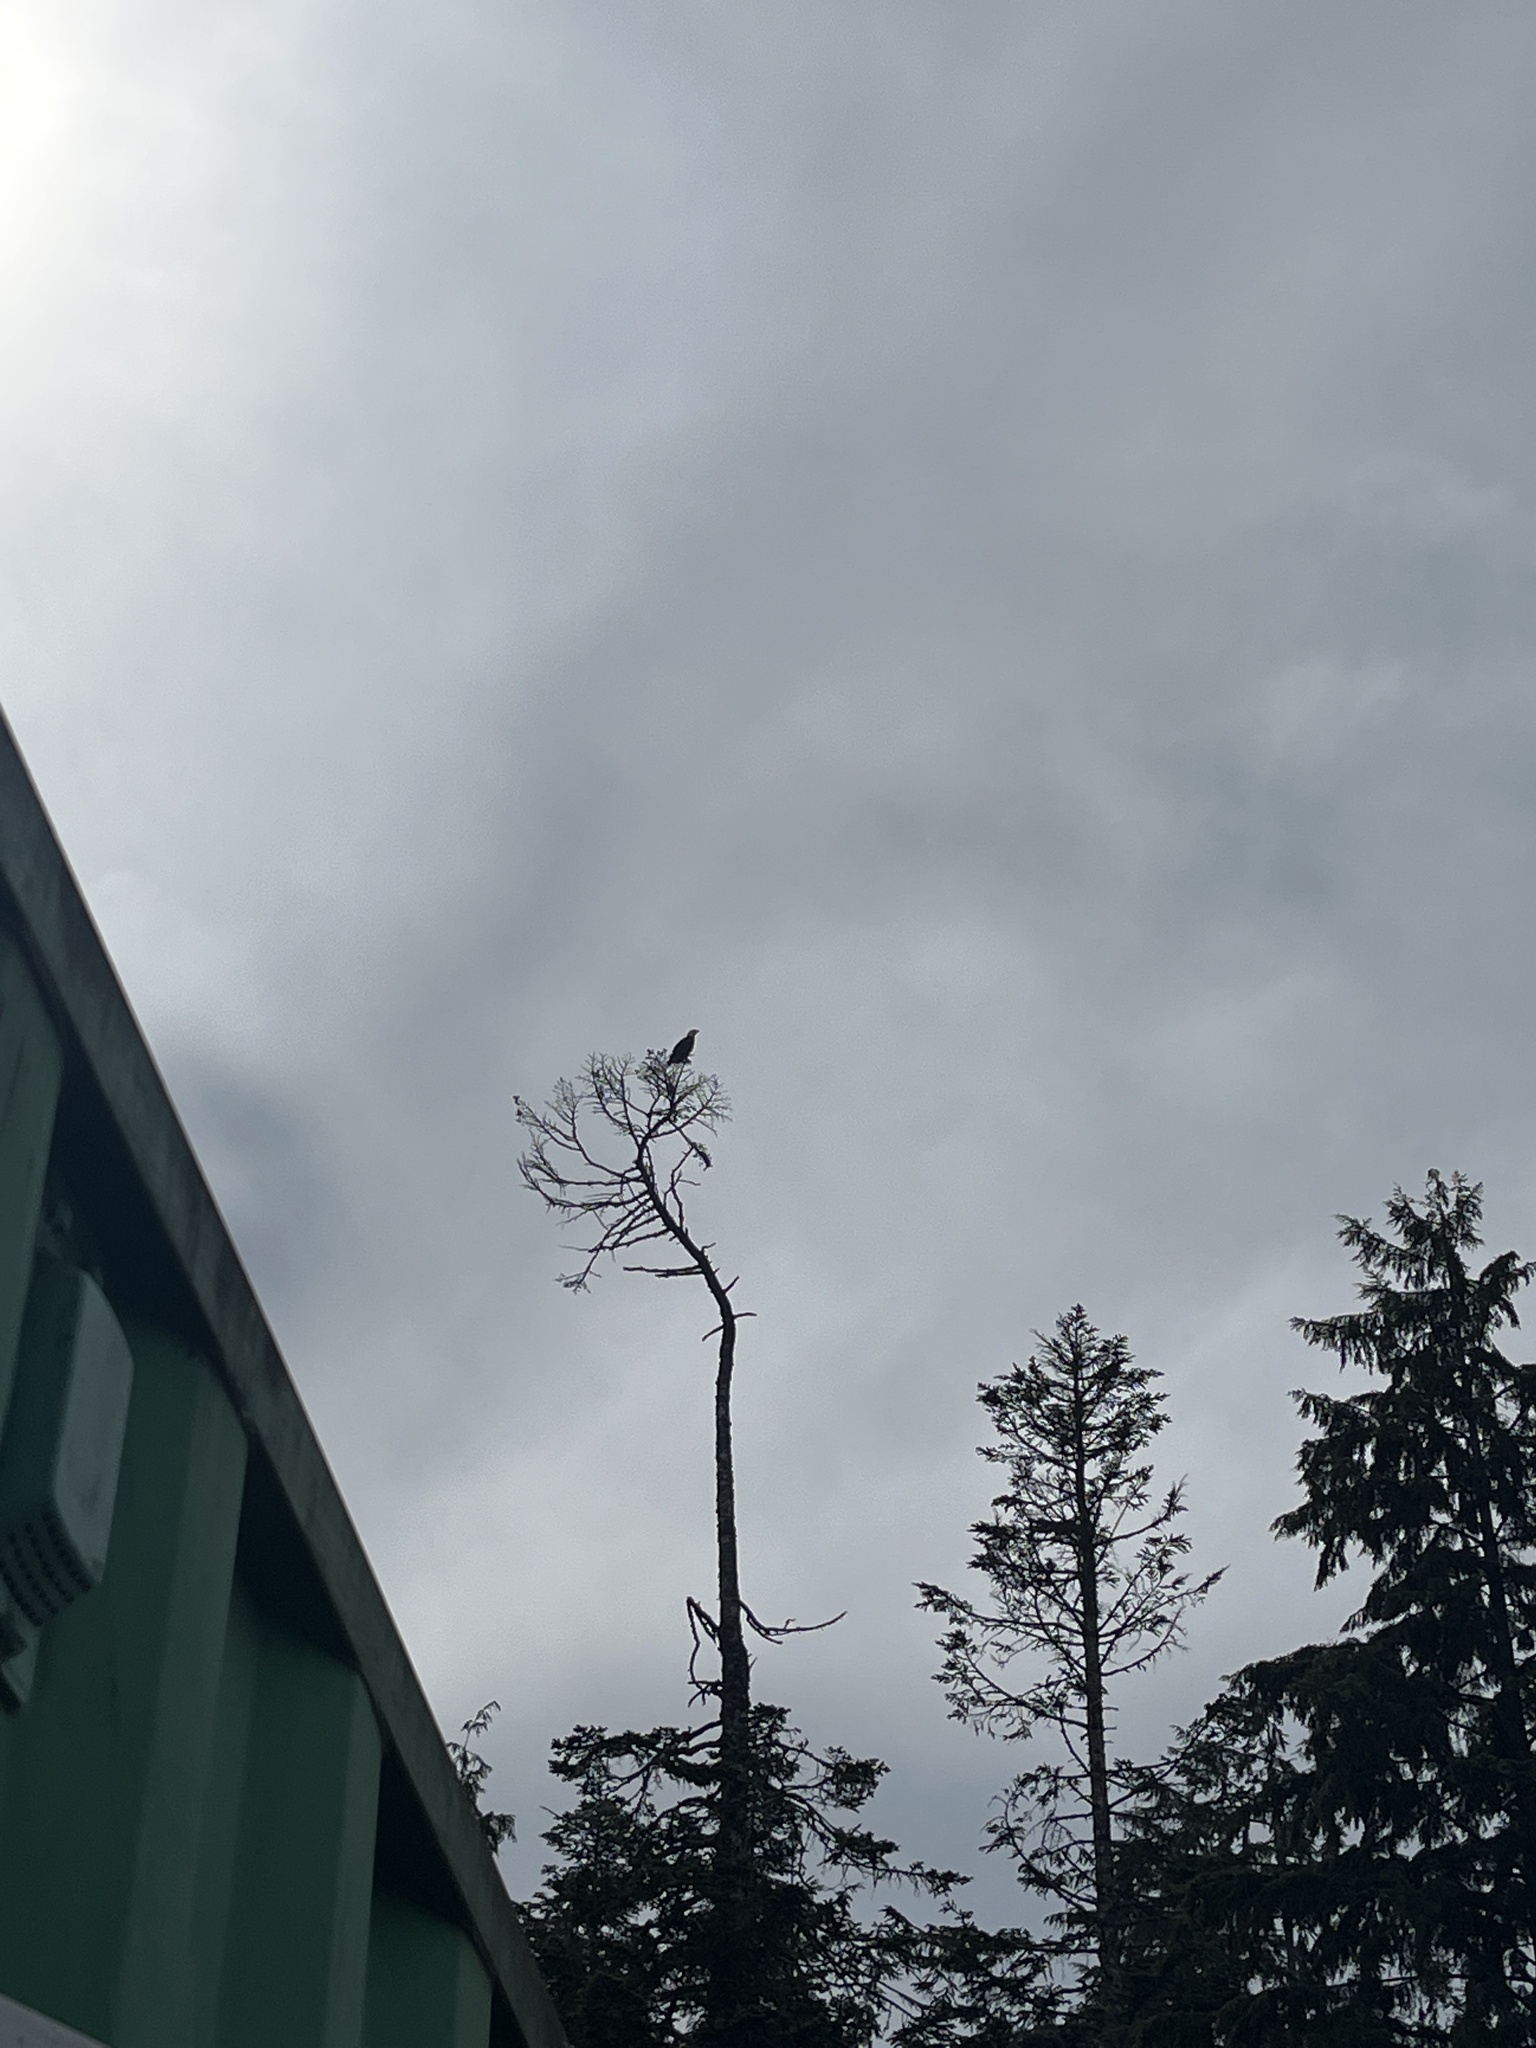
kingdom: Animalia
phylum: Chordata
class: Aves
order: Accipitriformes
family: Accipitridae
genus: Haliaeetus
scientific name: Haliaeetus leucocephalus
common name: Bald eagle
